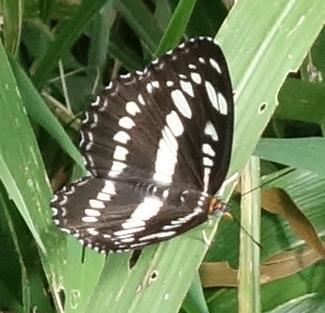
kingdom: Animalia
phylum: Arthropoda
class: Insecta
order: Lepidoptera
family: Nymphalidae
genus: Parathyma
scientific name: Parathyma perius
